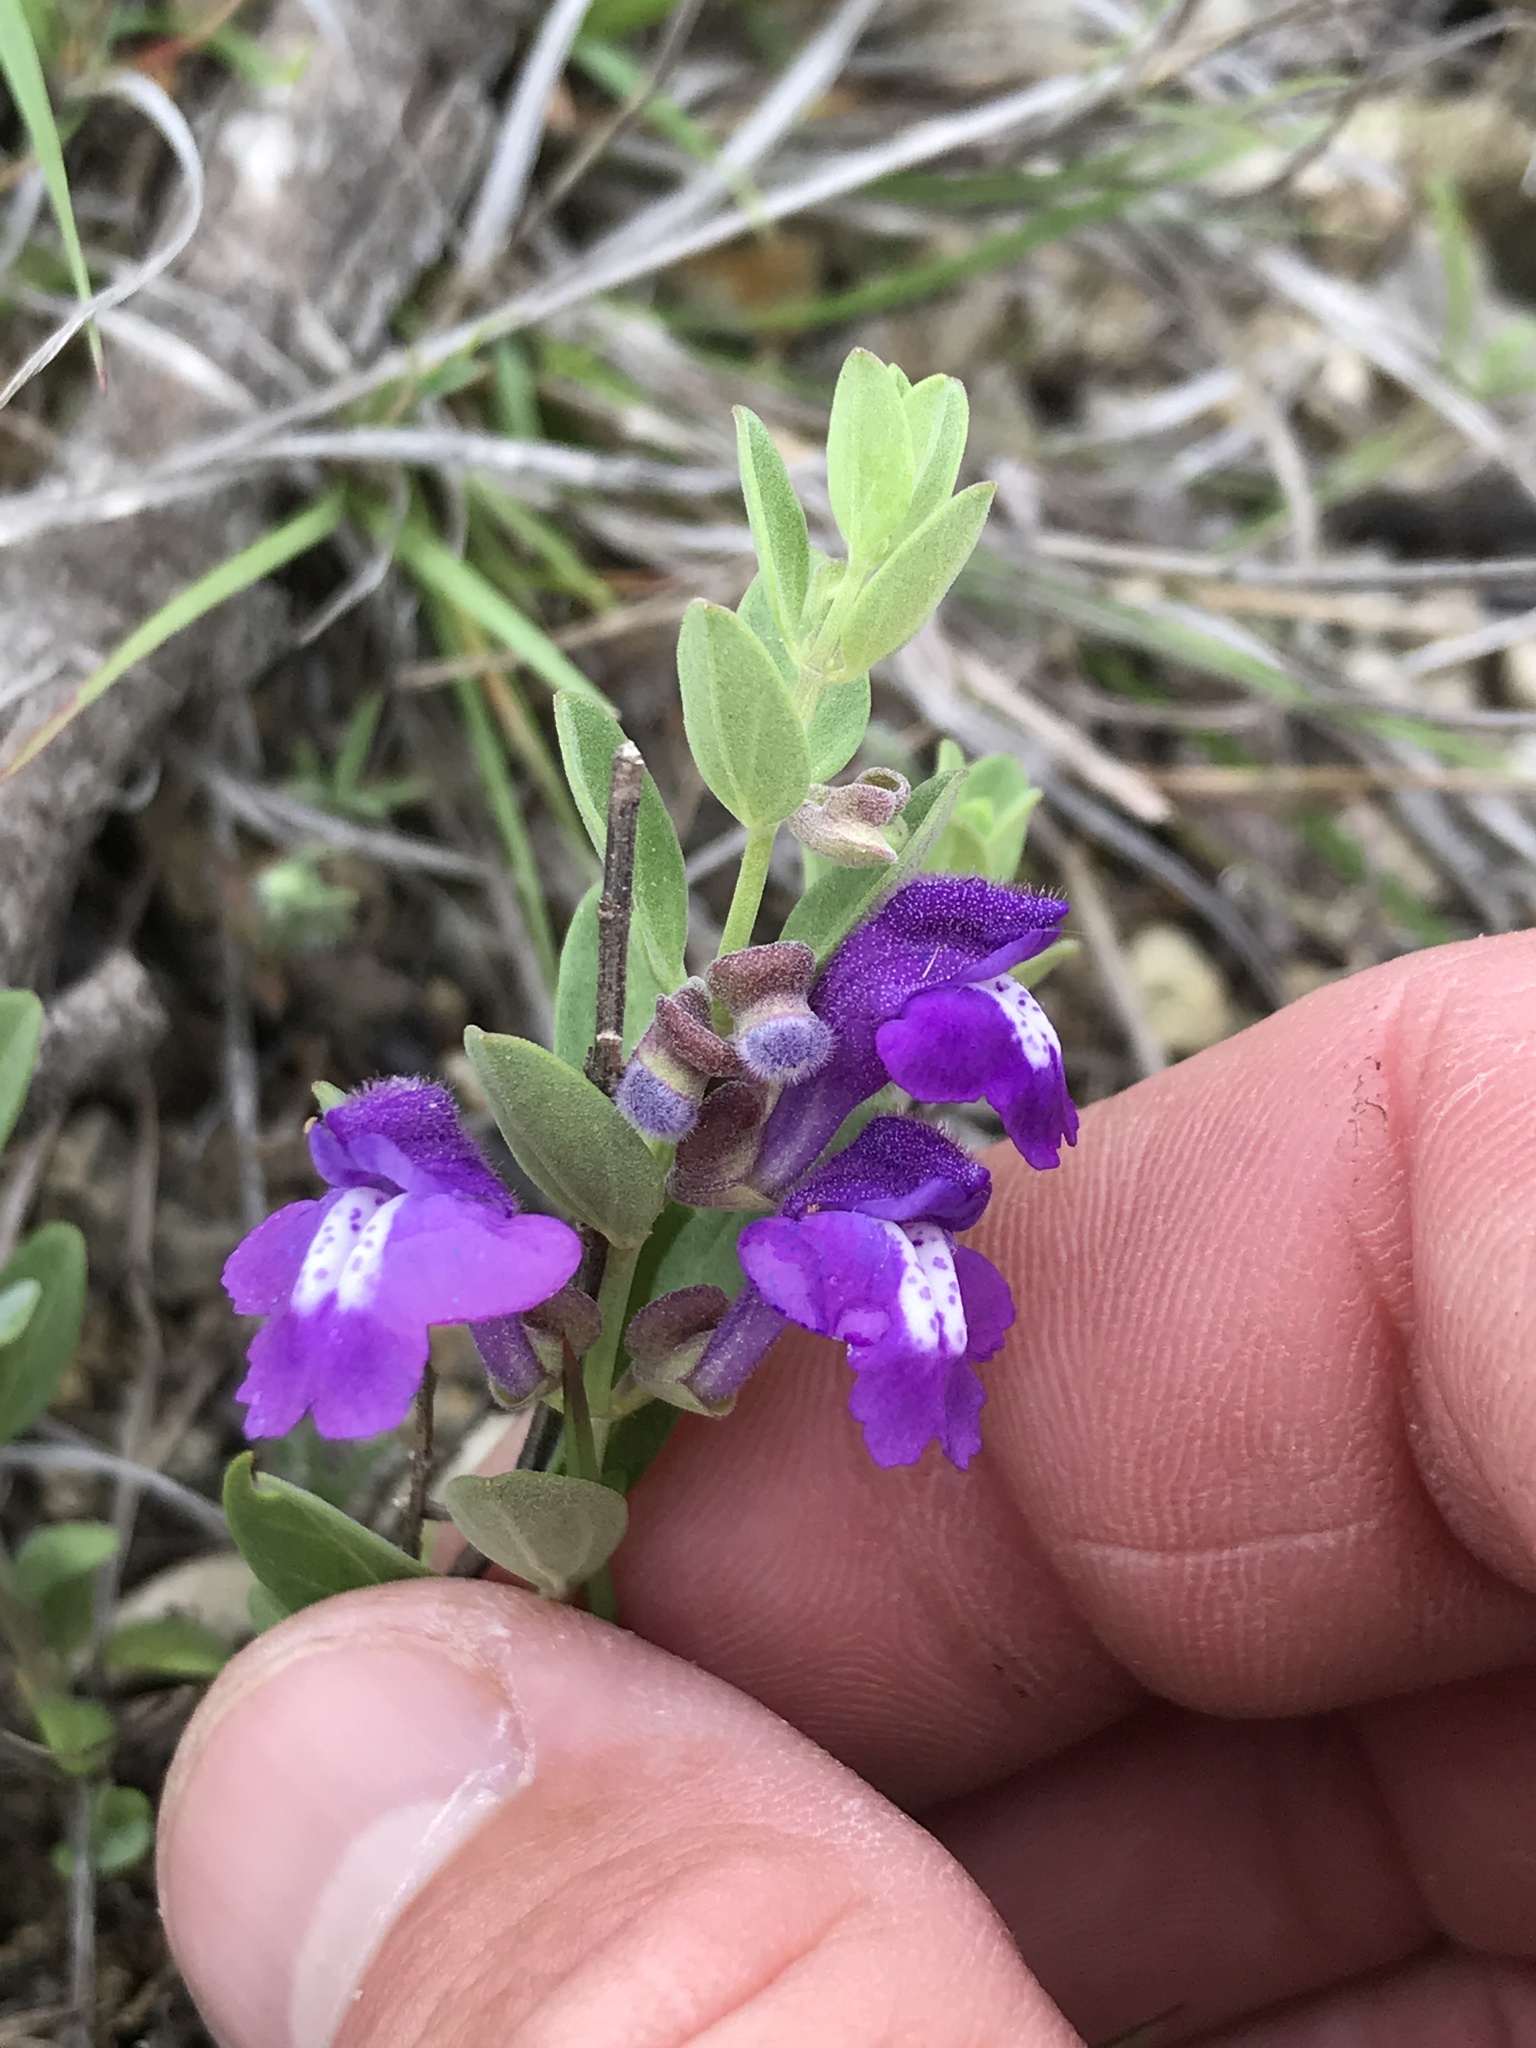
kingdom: Plantae
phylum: Tracheophyta
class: Magnoliopsida
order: Lamiales
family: Lamiaceae
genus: Scutellaria
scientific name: Scutellaria drummondii
